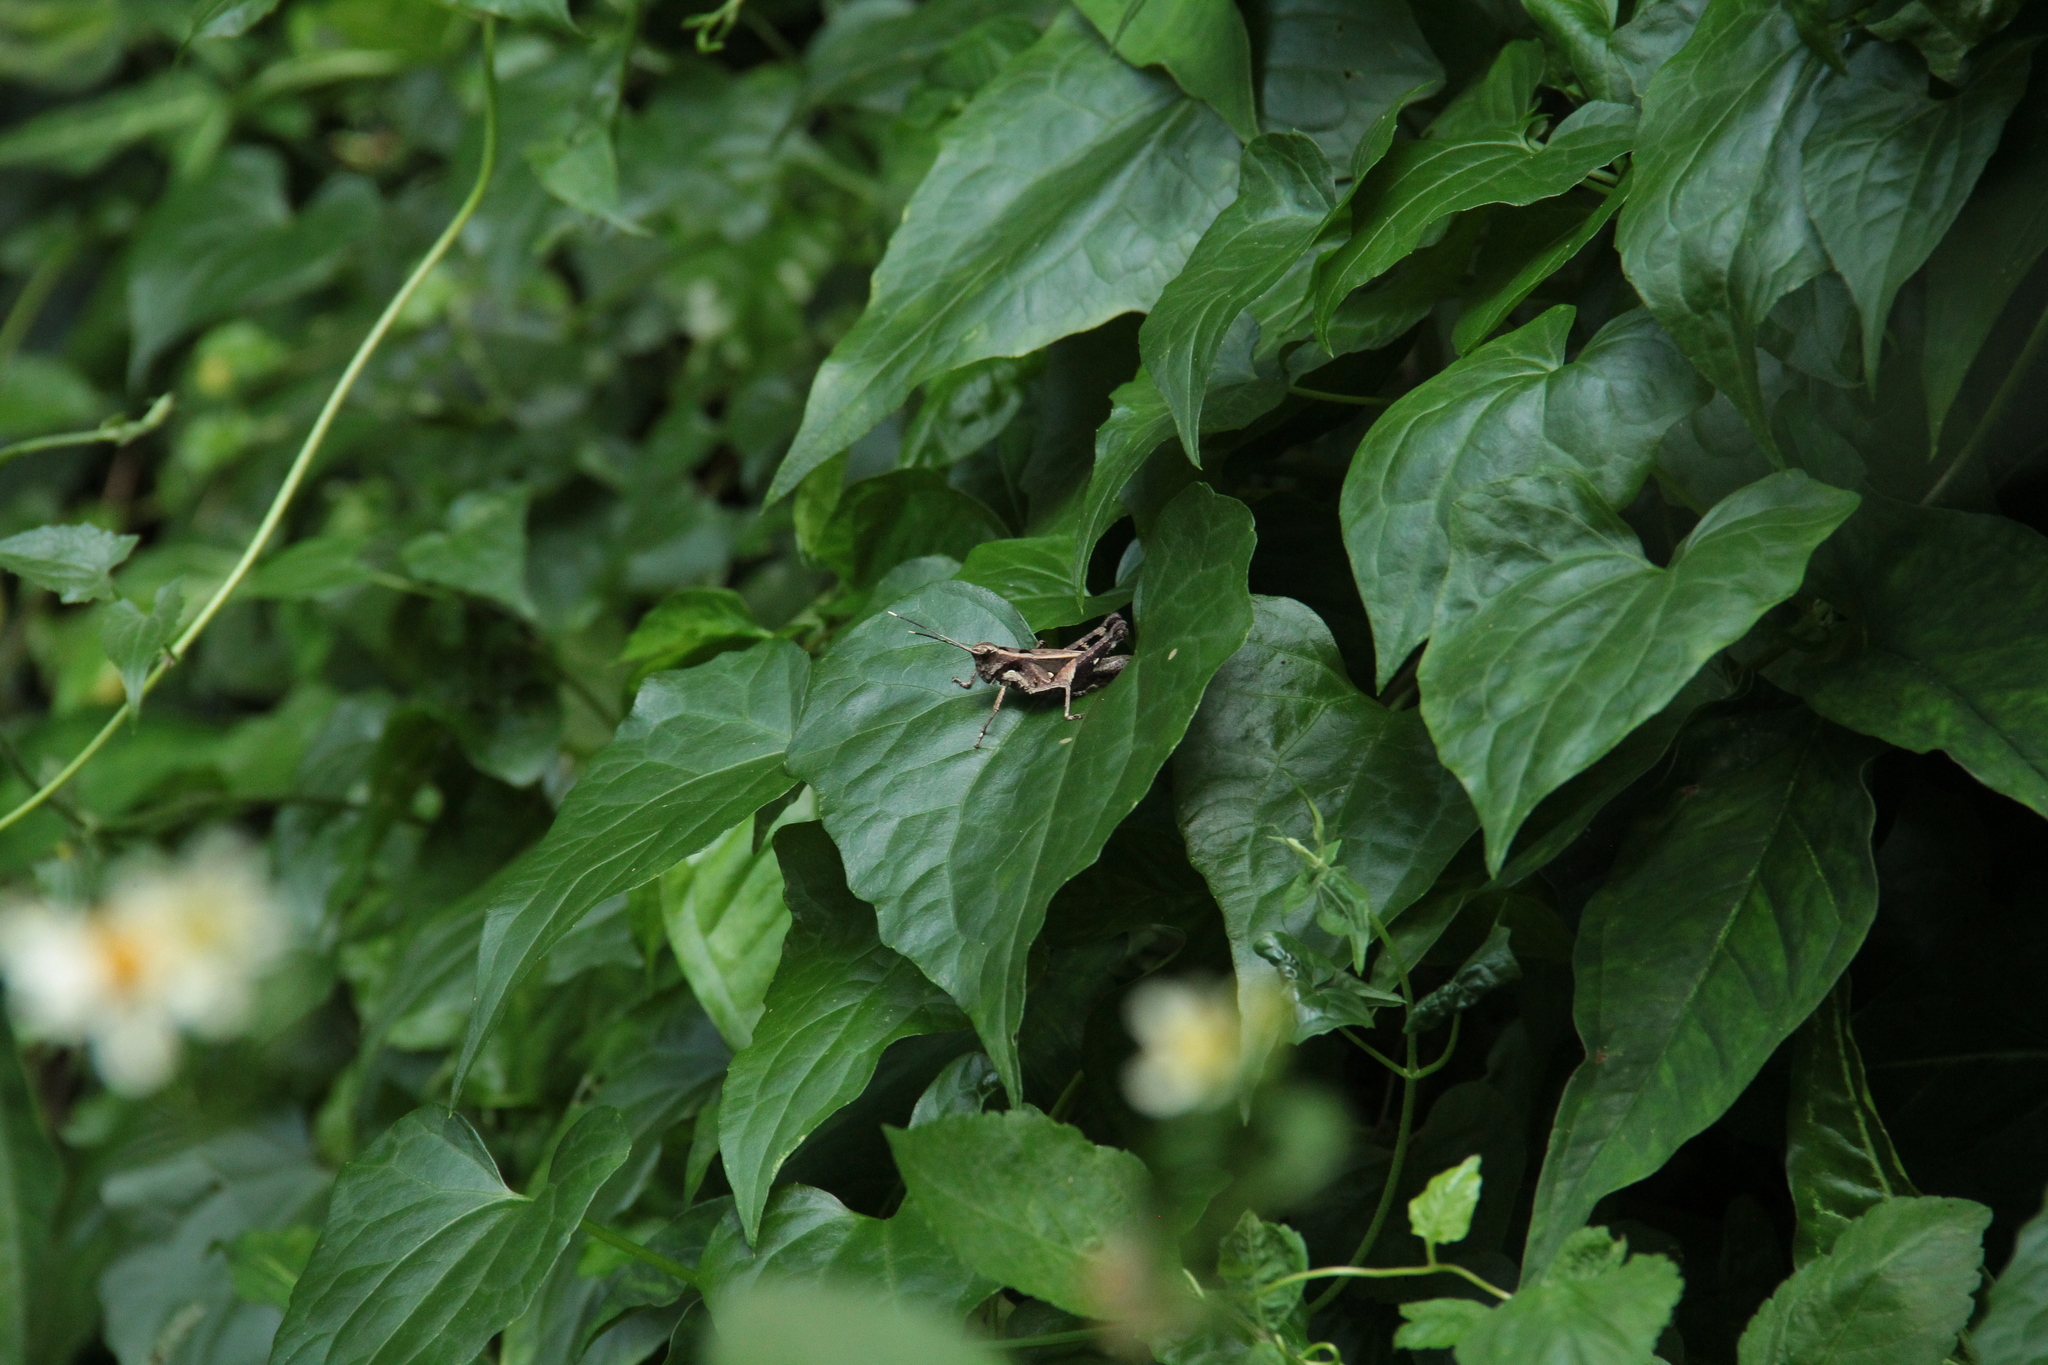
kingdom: Animalia
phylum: Arthropoda
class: Insecta
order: Orthoptera
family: Acrididae
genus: Traulia
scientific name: Traulia ornata
